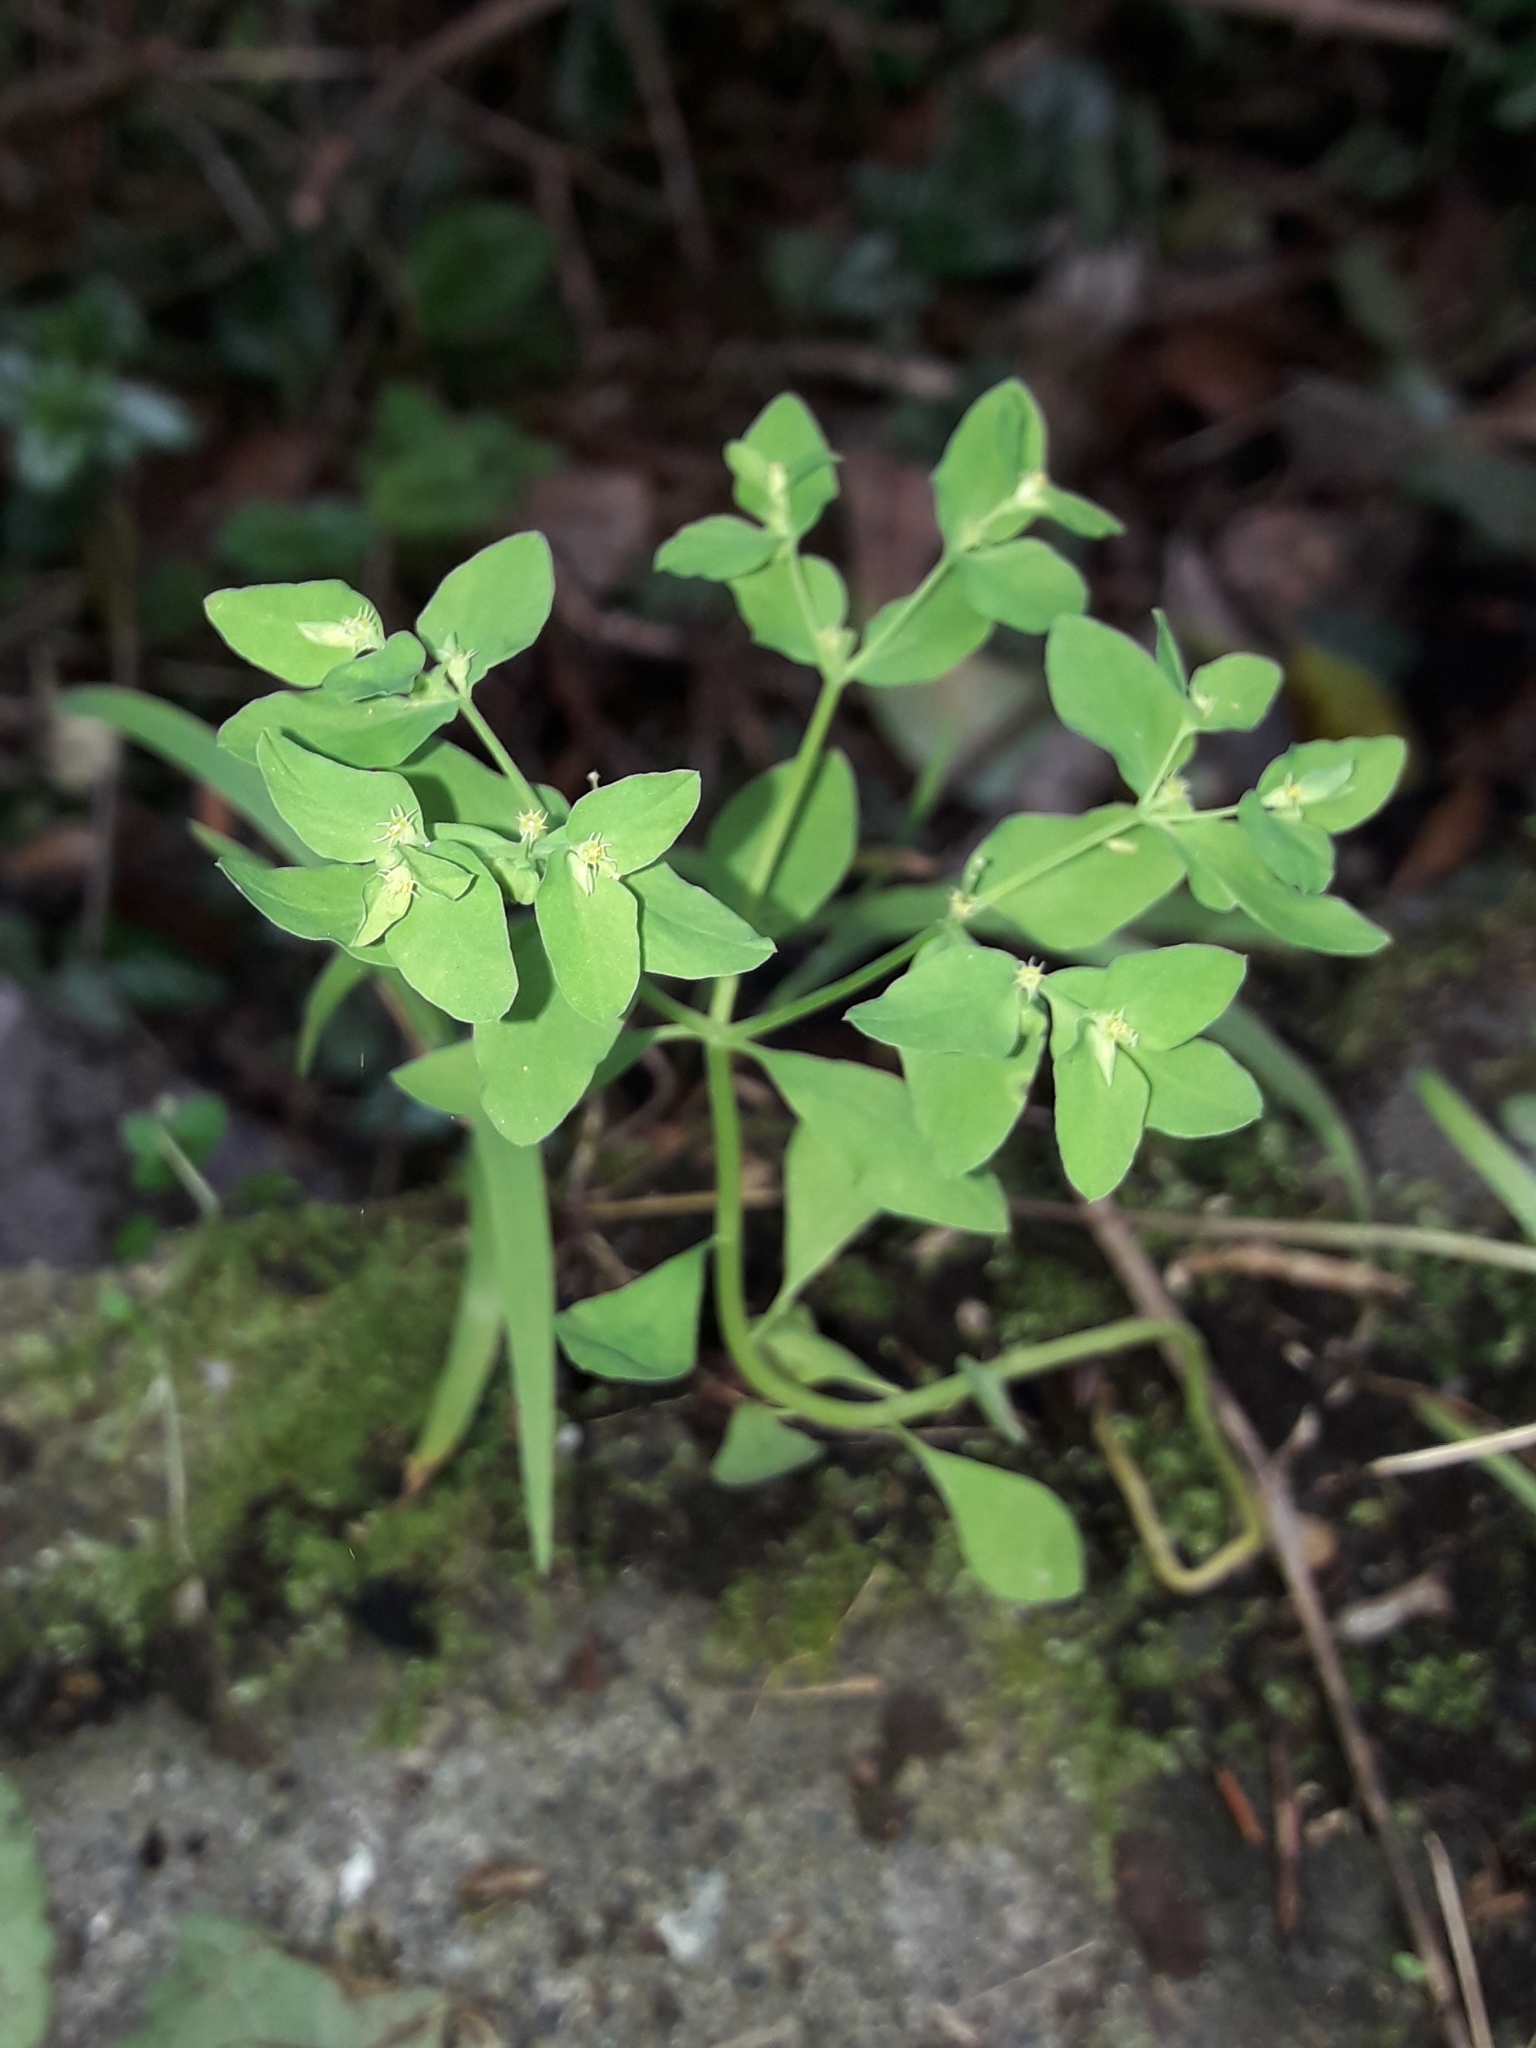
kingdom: Plantae
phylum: Tracheophyta
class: Magnoliopsida
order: Malpighiales
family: Euphorbiaceae
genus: Euphorbia
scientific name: Euphorbia peplus
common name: Petty spurge
